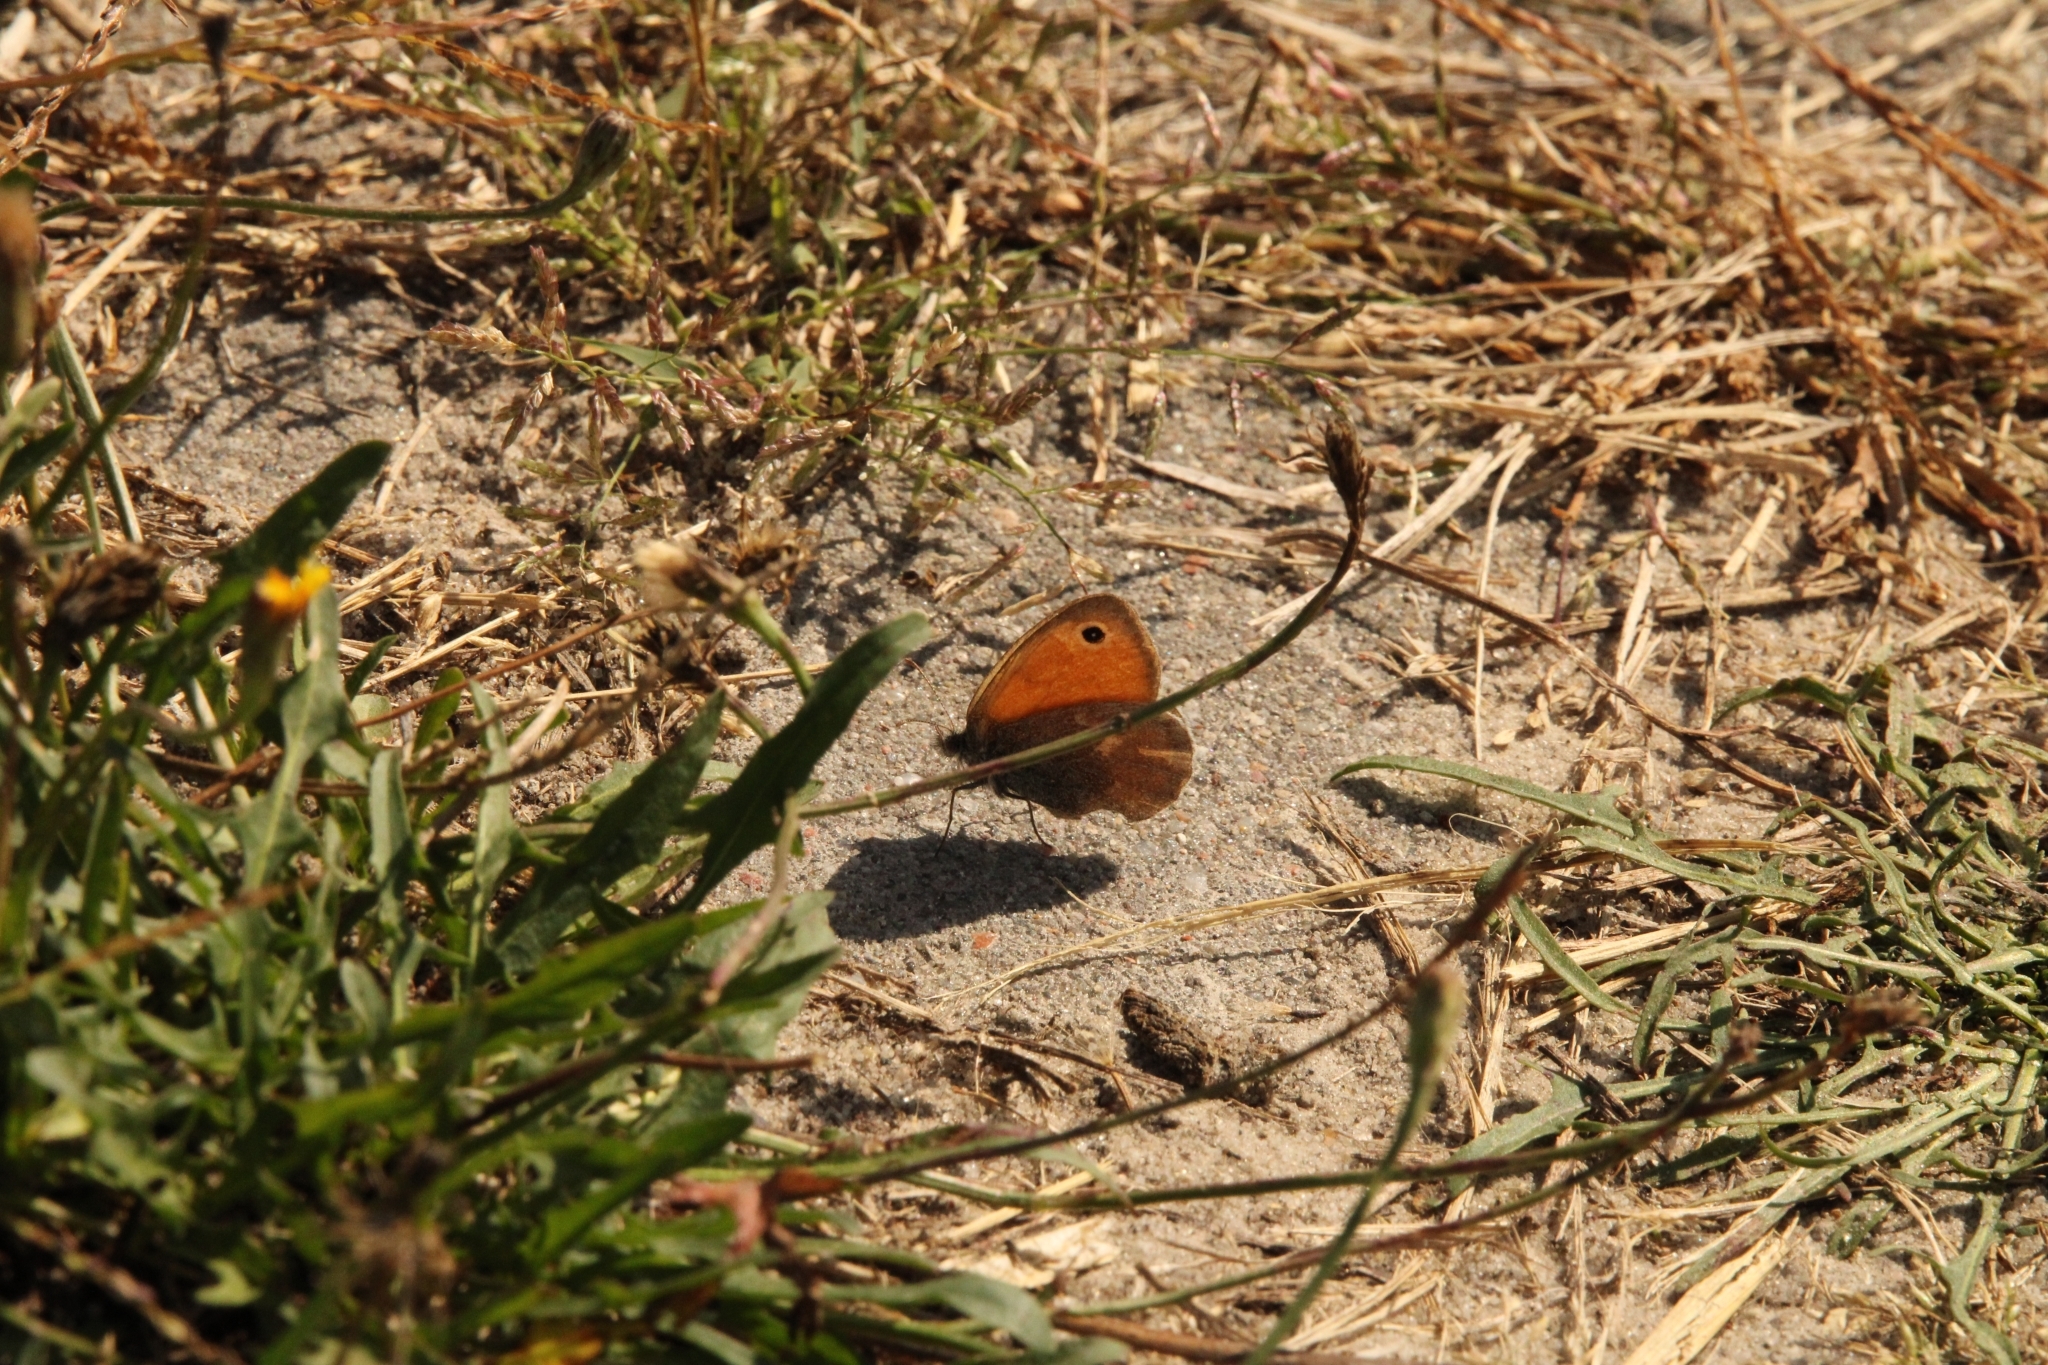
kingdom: Animalia
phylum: Arthropoda
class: Insecta
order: Lepidoptera
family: Nymphalidae
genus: Coenonympha
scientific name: Coenonympha pamphilus
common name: Small heath
